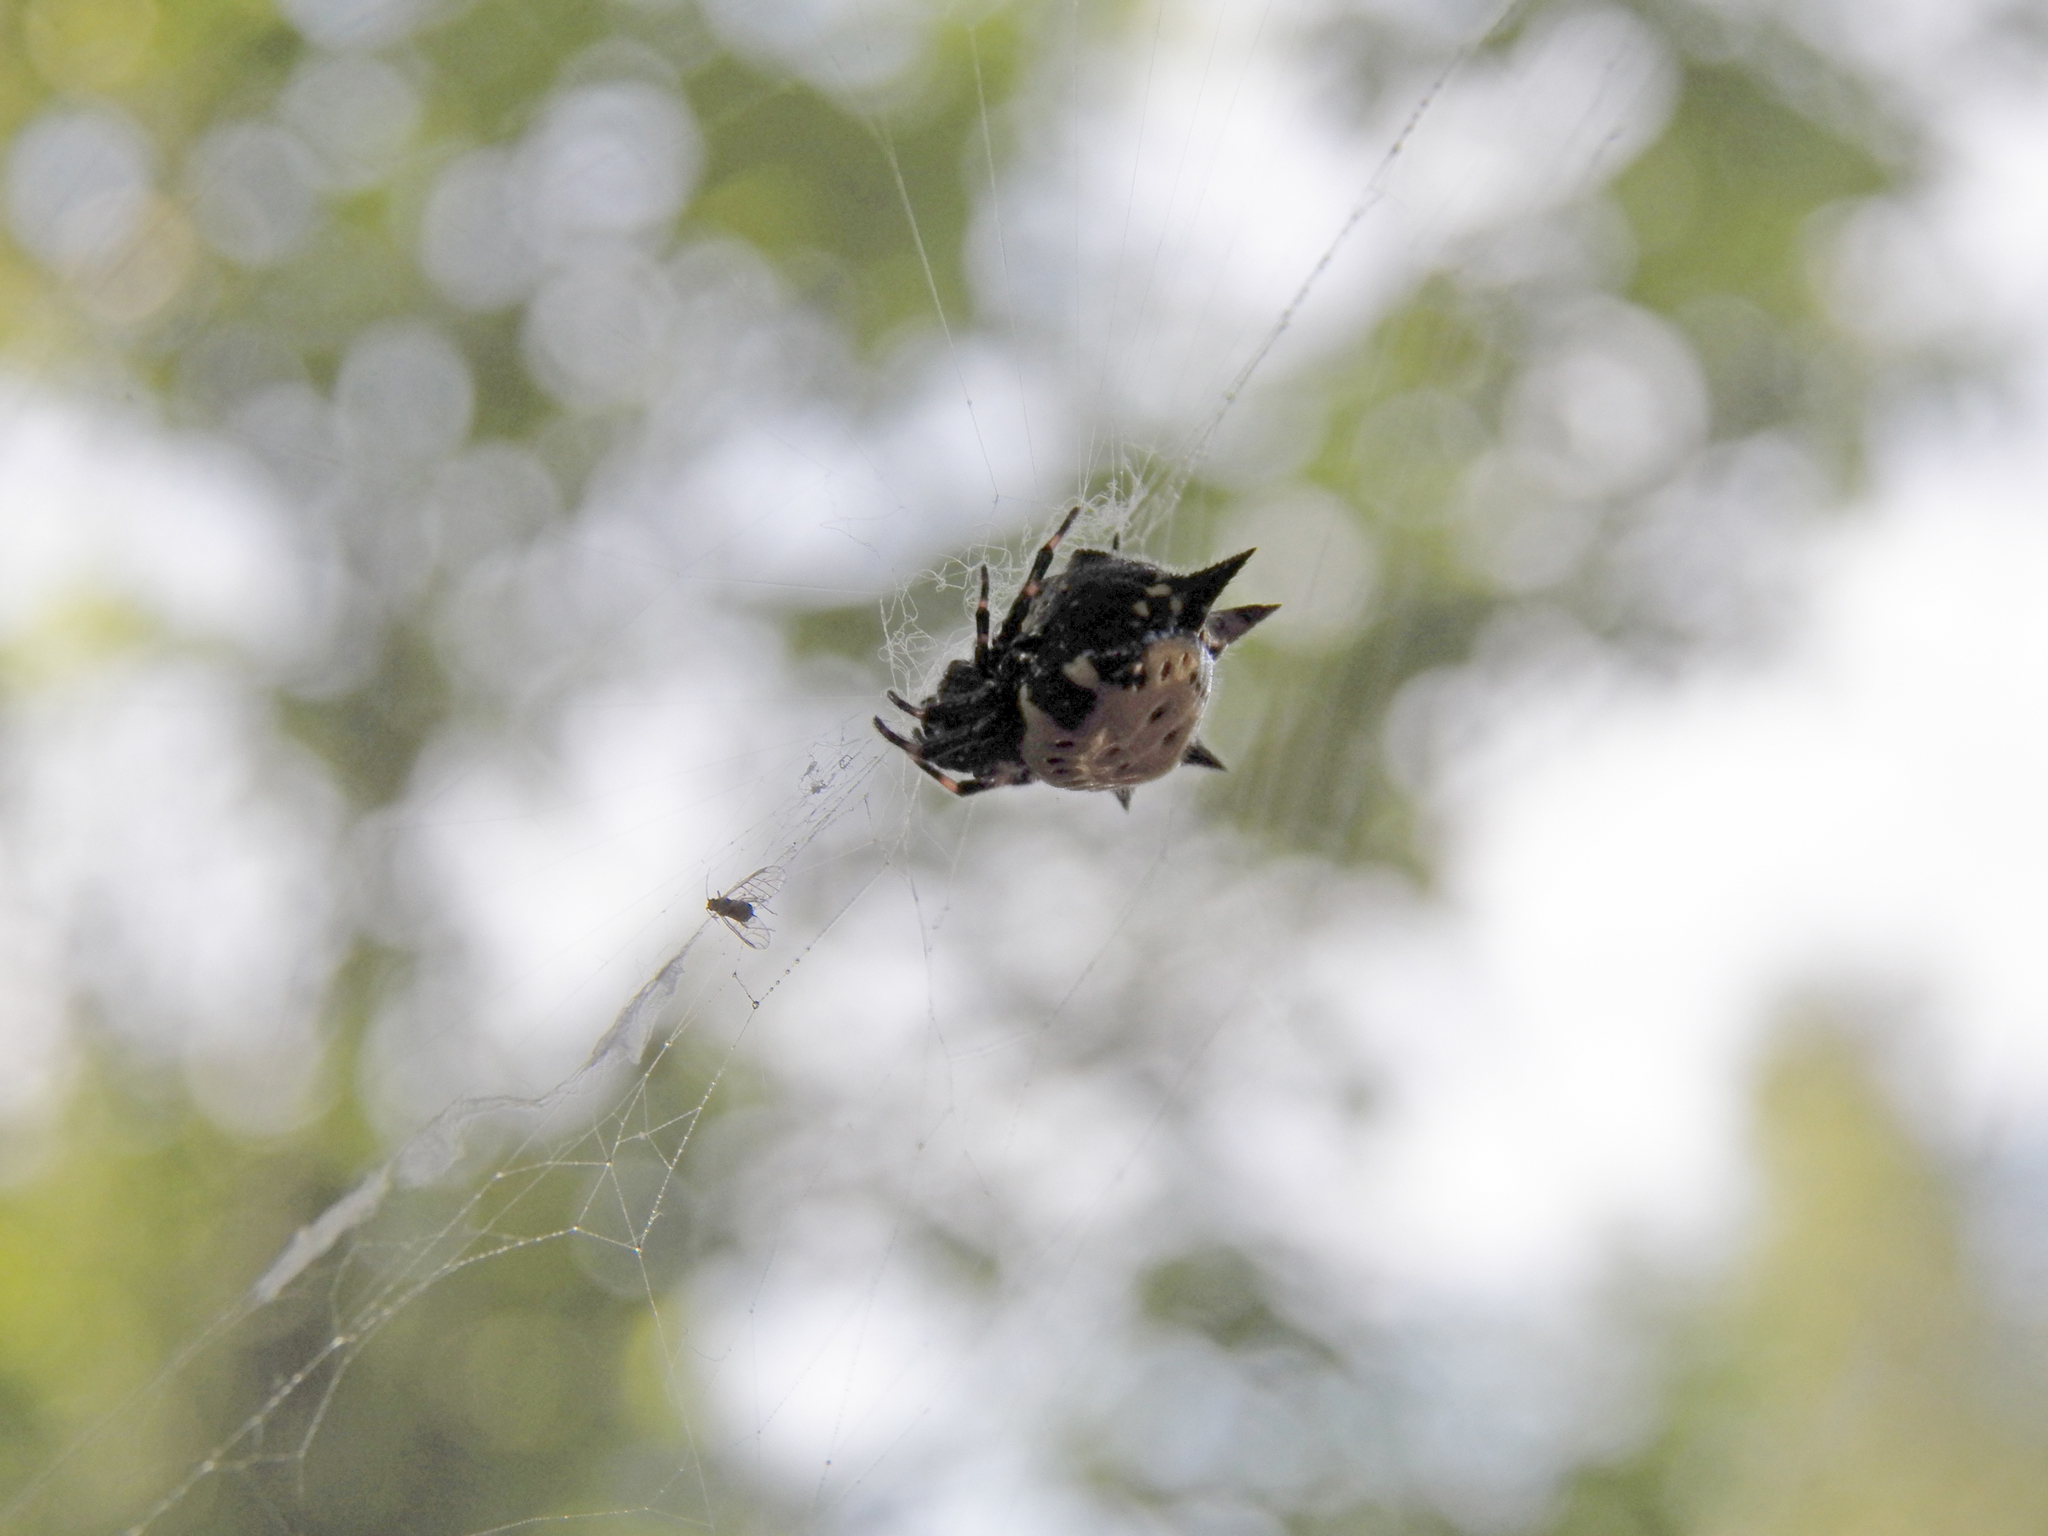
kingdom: Animalia
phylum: Arthropoda
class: Arachnida
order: Araneae
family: Araneidae
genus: Gasteracantha
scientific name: Gasteracantha cancriformis
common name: Orb weavers
